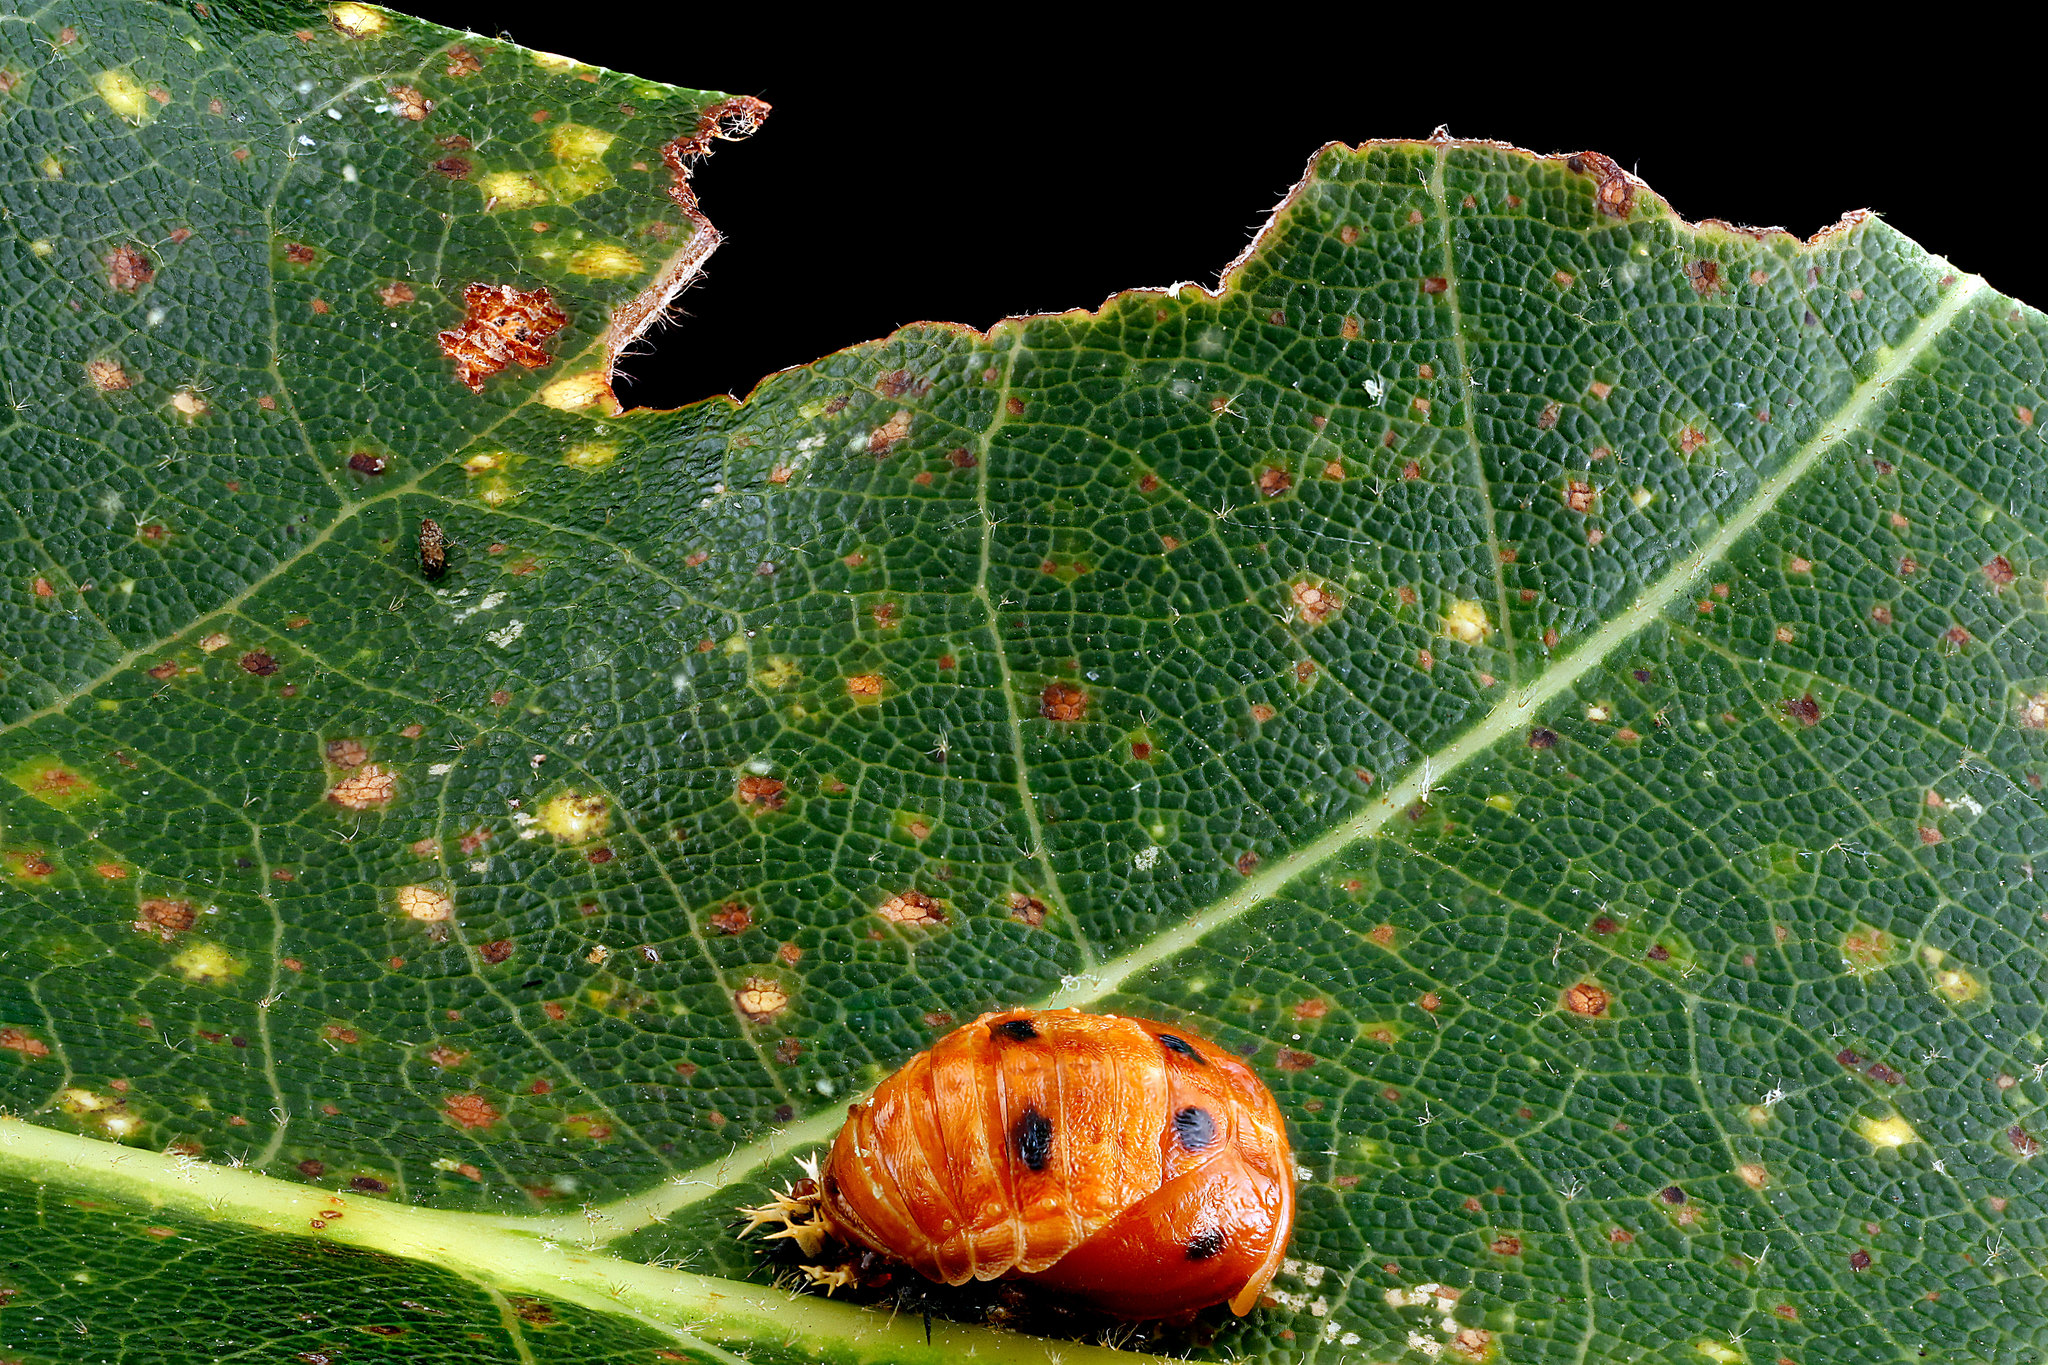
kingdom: Animalia
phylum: Arthropoda
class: Insecta
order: Coleoptera
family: Coccinellidae
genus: Harmonia
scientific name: Harmonia axyridis
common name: Harlequin ladybird
